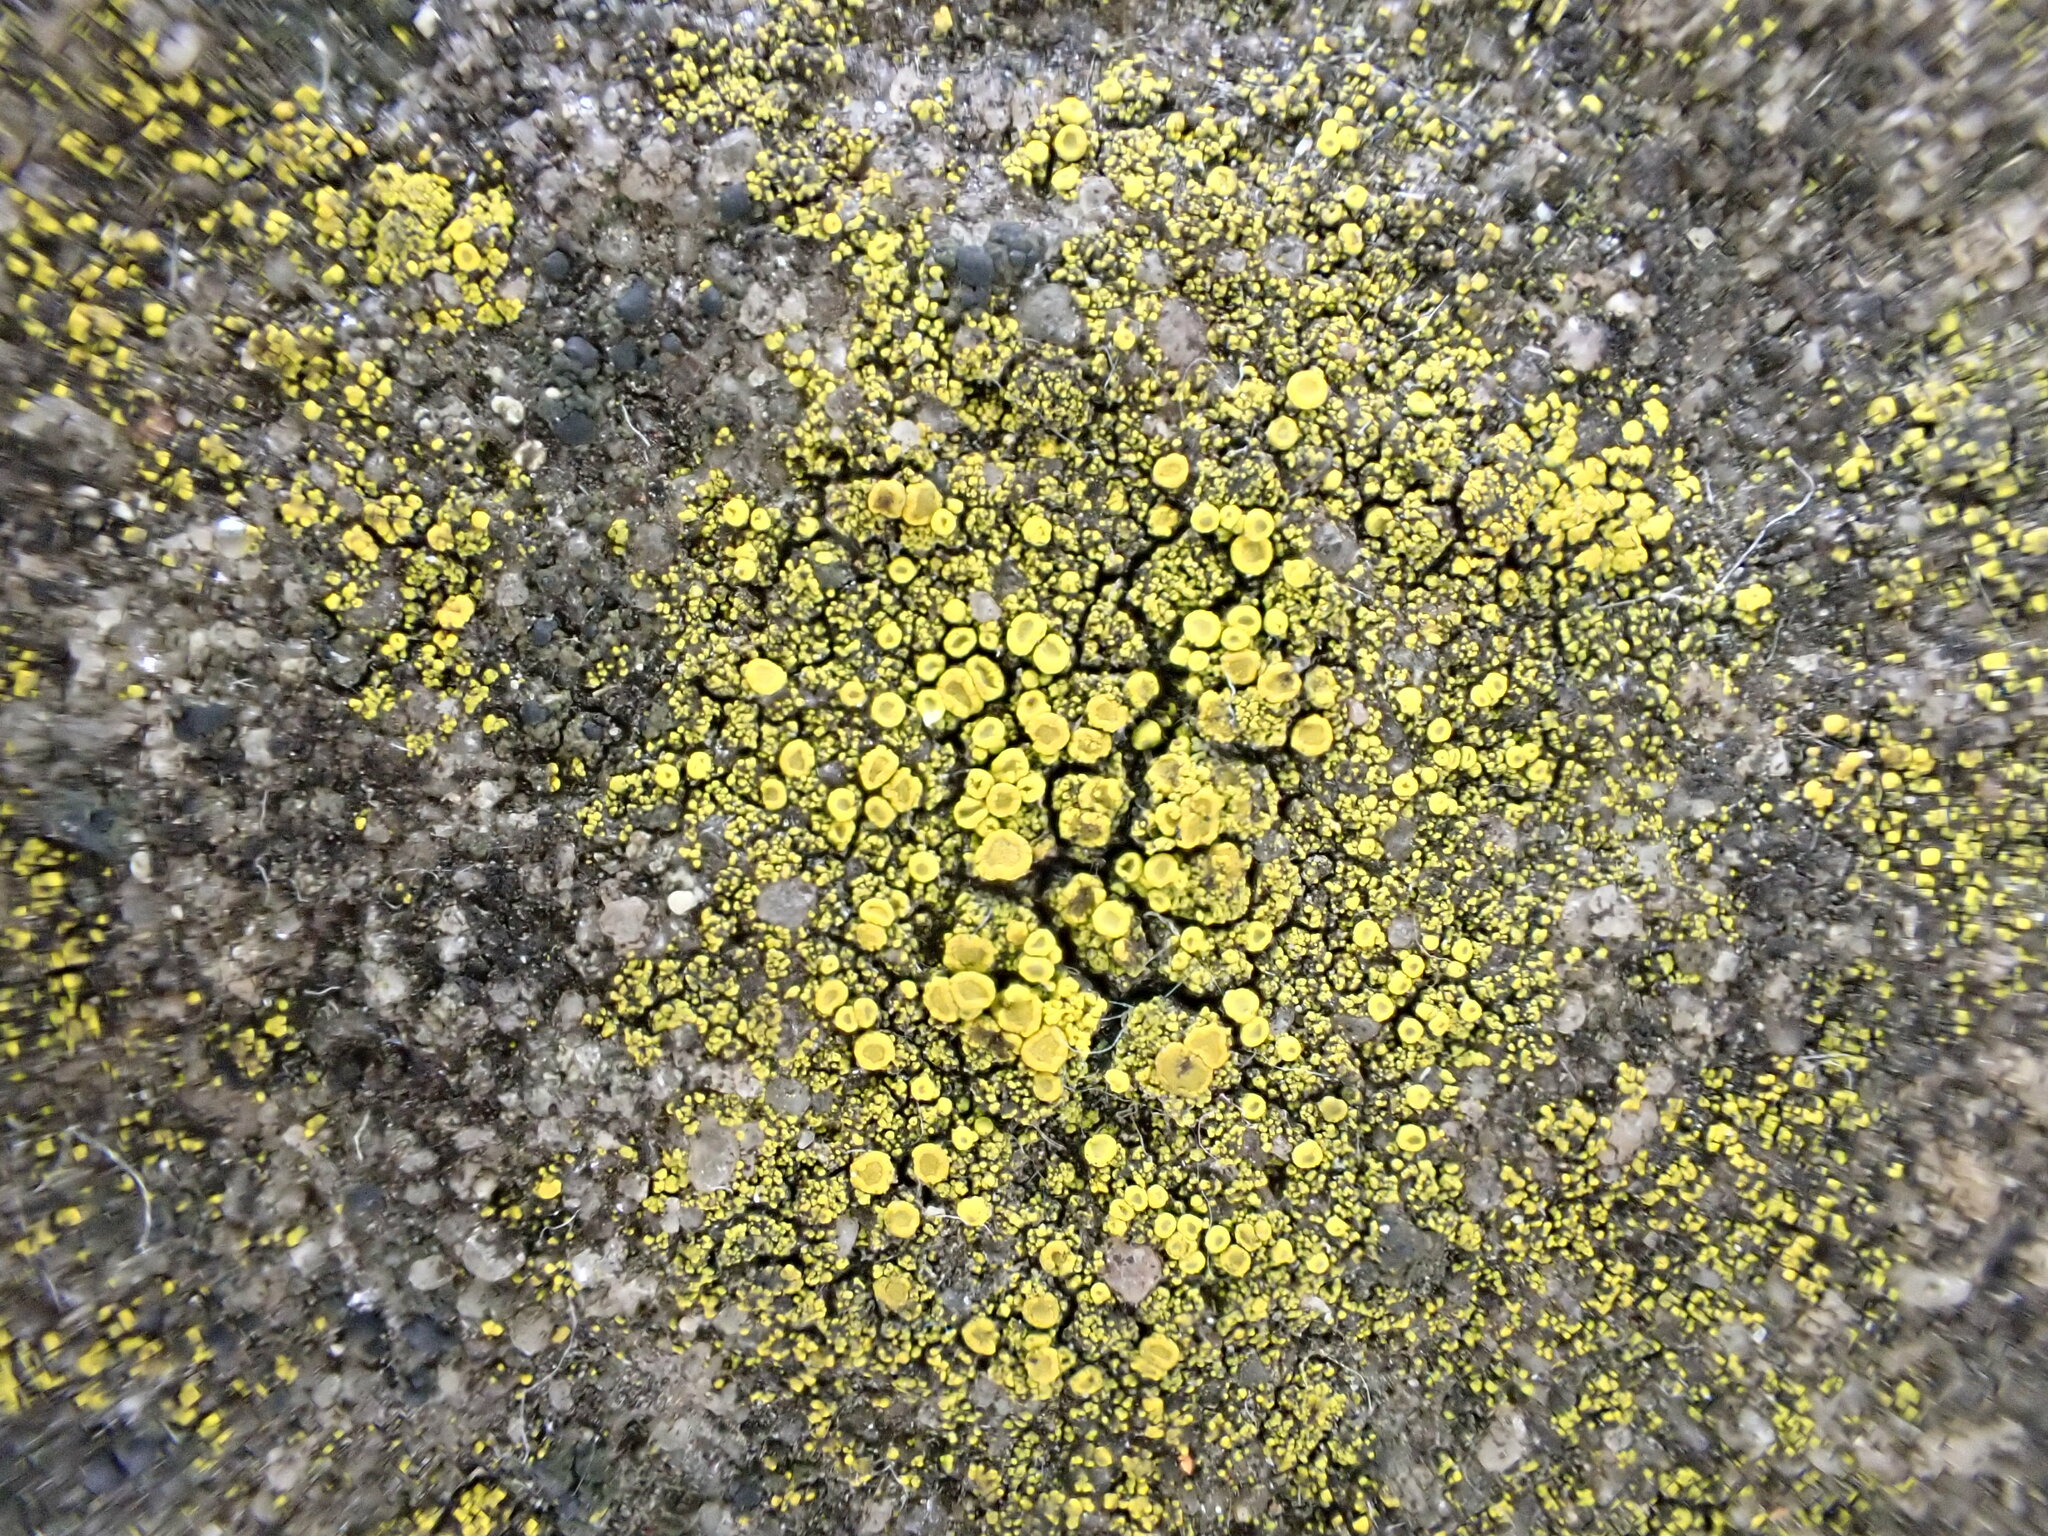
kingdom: Fungi
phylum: Ascomycota
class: Candelariomycetes
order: Candelariales
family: Candelariaceae
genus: Candelariella
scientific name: Candelariella vitellina
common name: Common goldspeck
